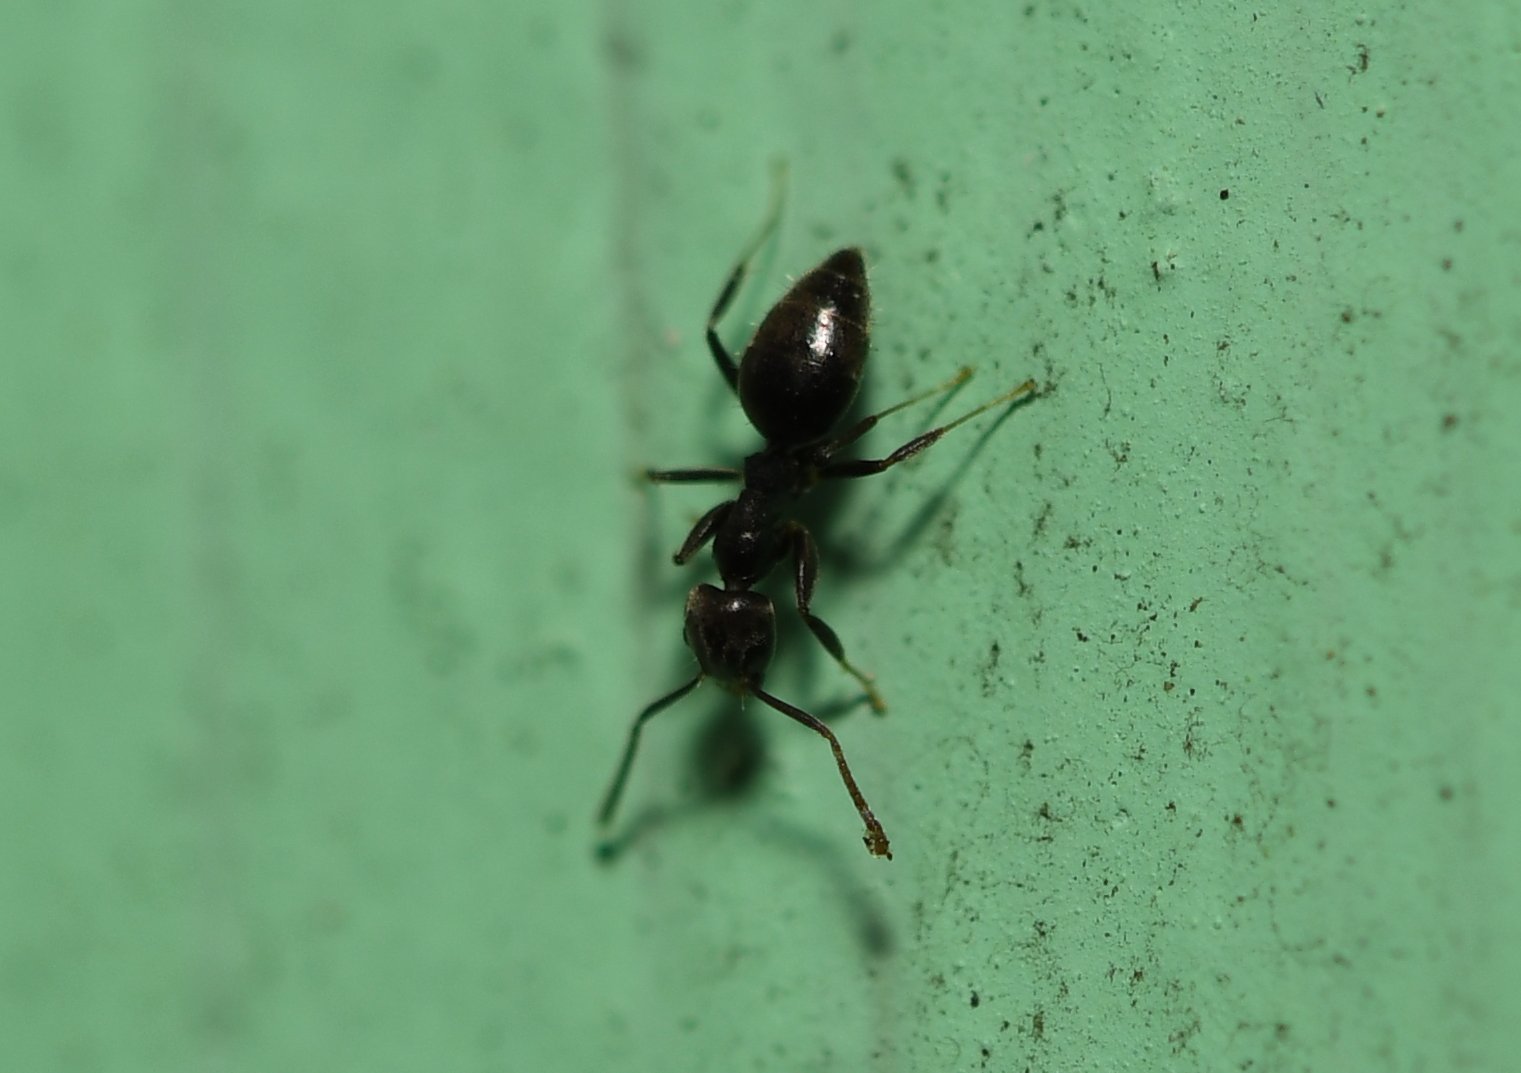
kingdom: Animalia
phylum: Arthropoda
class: Insecta
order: Hymenoptera
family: Formicidae
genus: Technomyrmex
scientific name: Technomyrmex difficilis
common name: Ant
